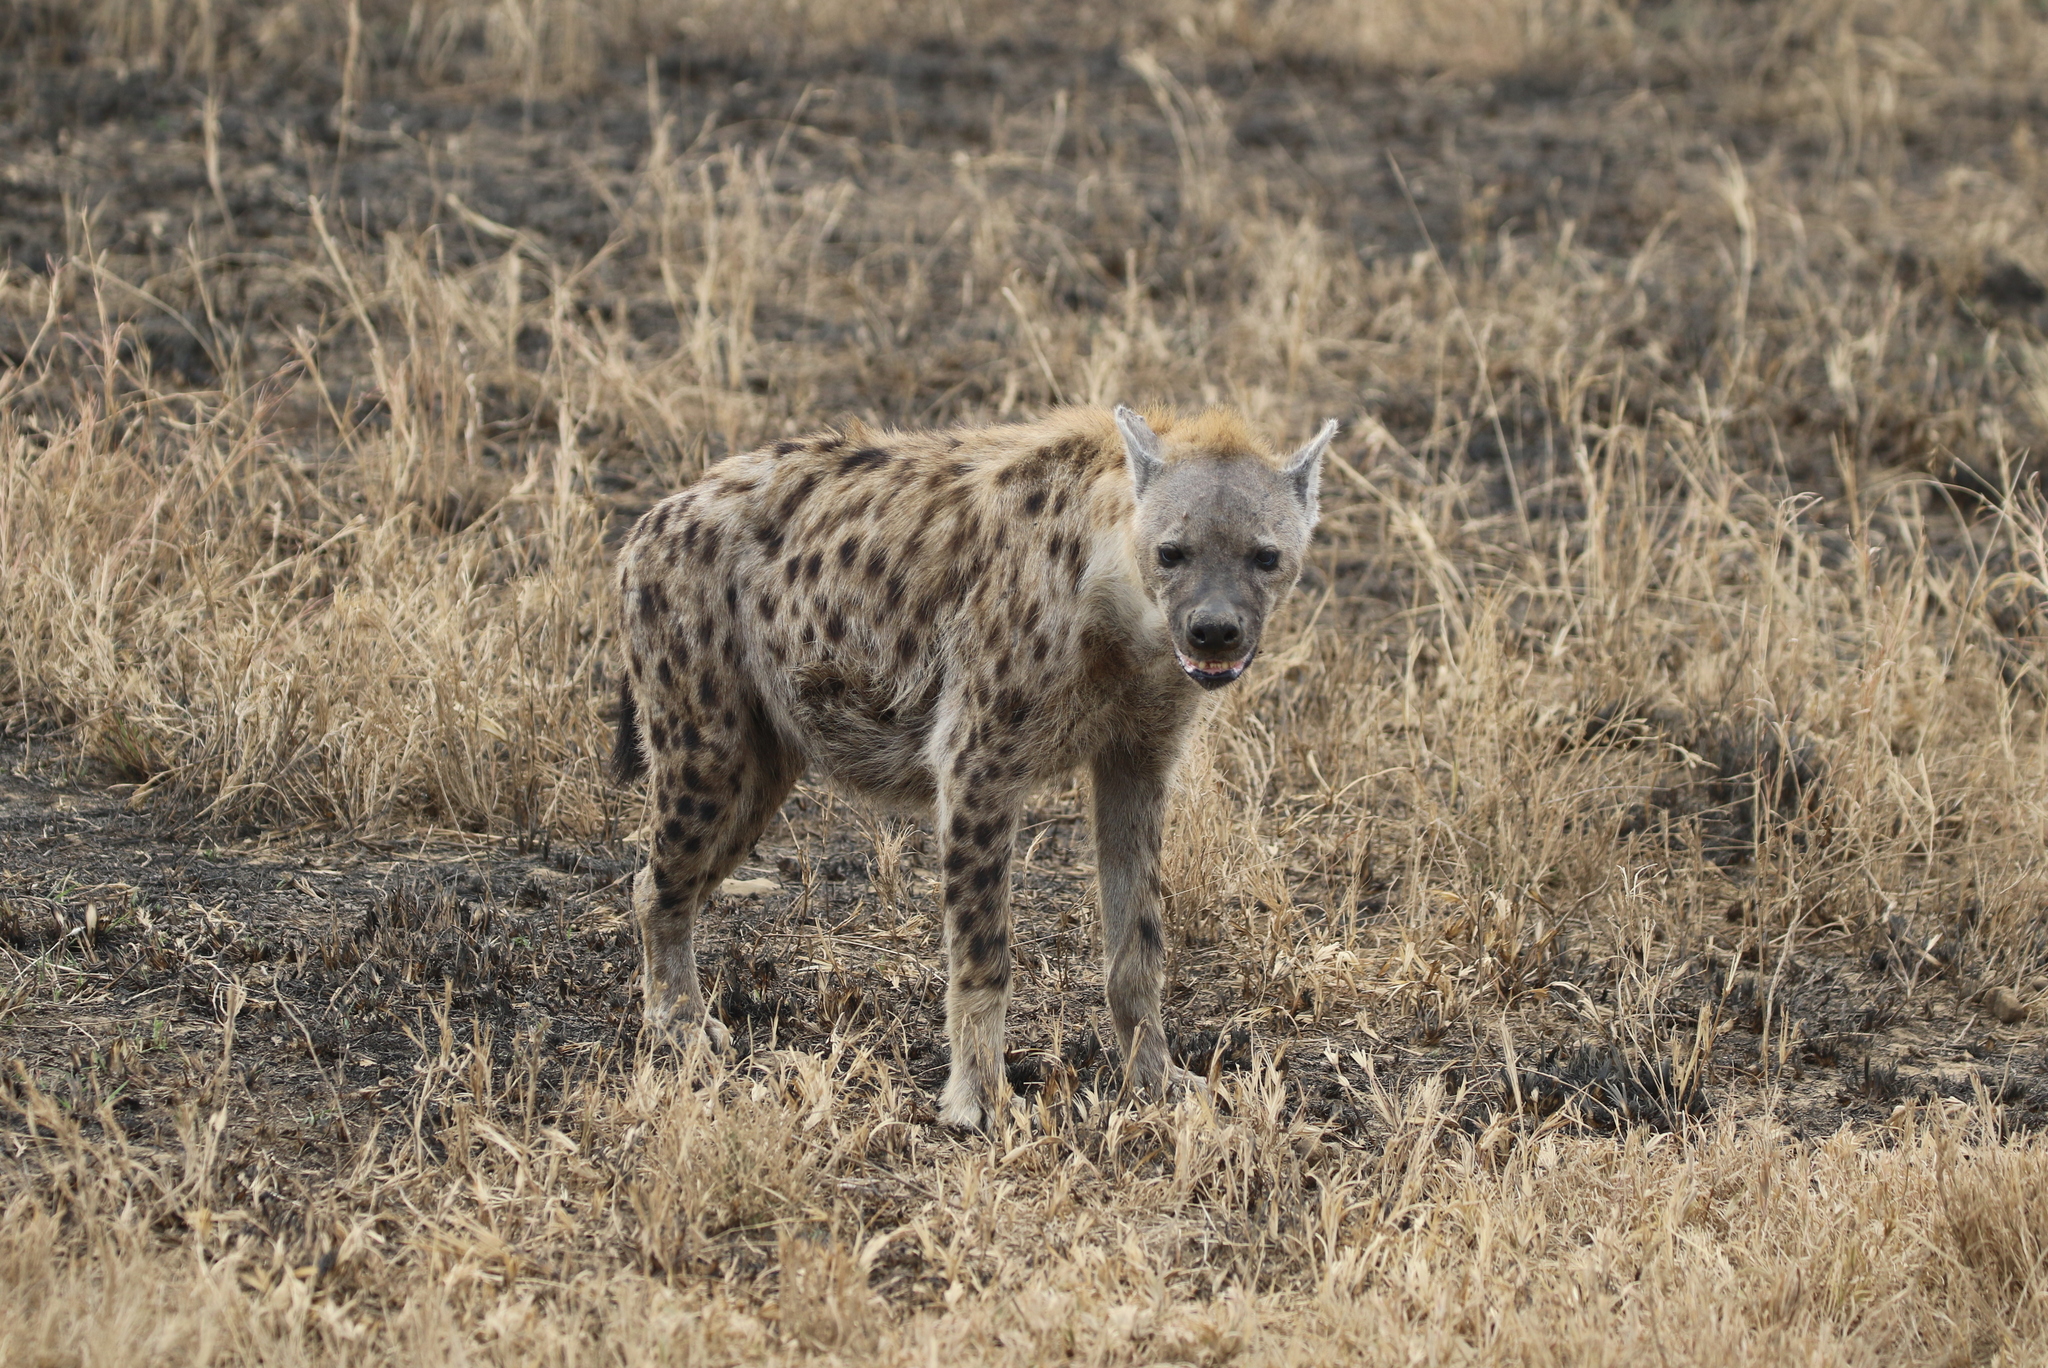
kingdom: Animalia
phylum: Chordata
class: Mammalia
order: Carnivora
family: Hyaenidae
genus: Crocuta
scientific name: Crocuta crocuta
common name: Spotted hyaena
